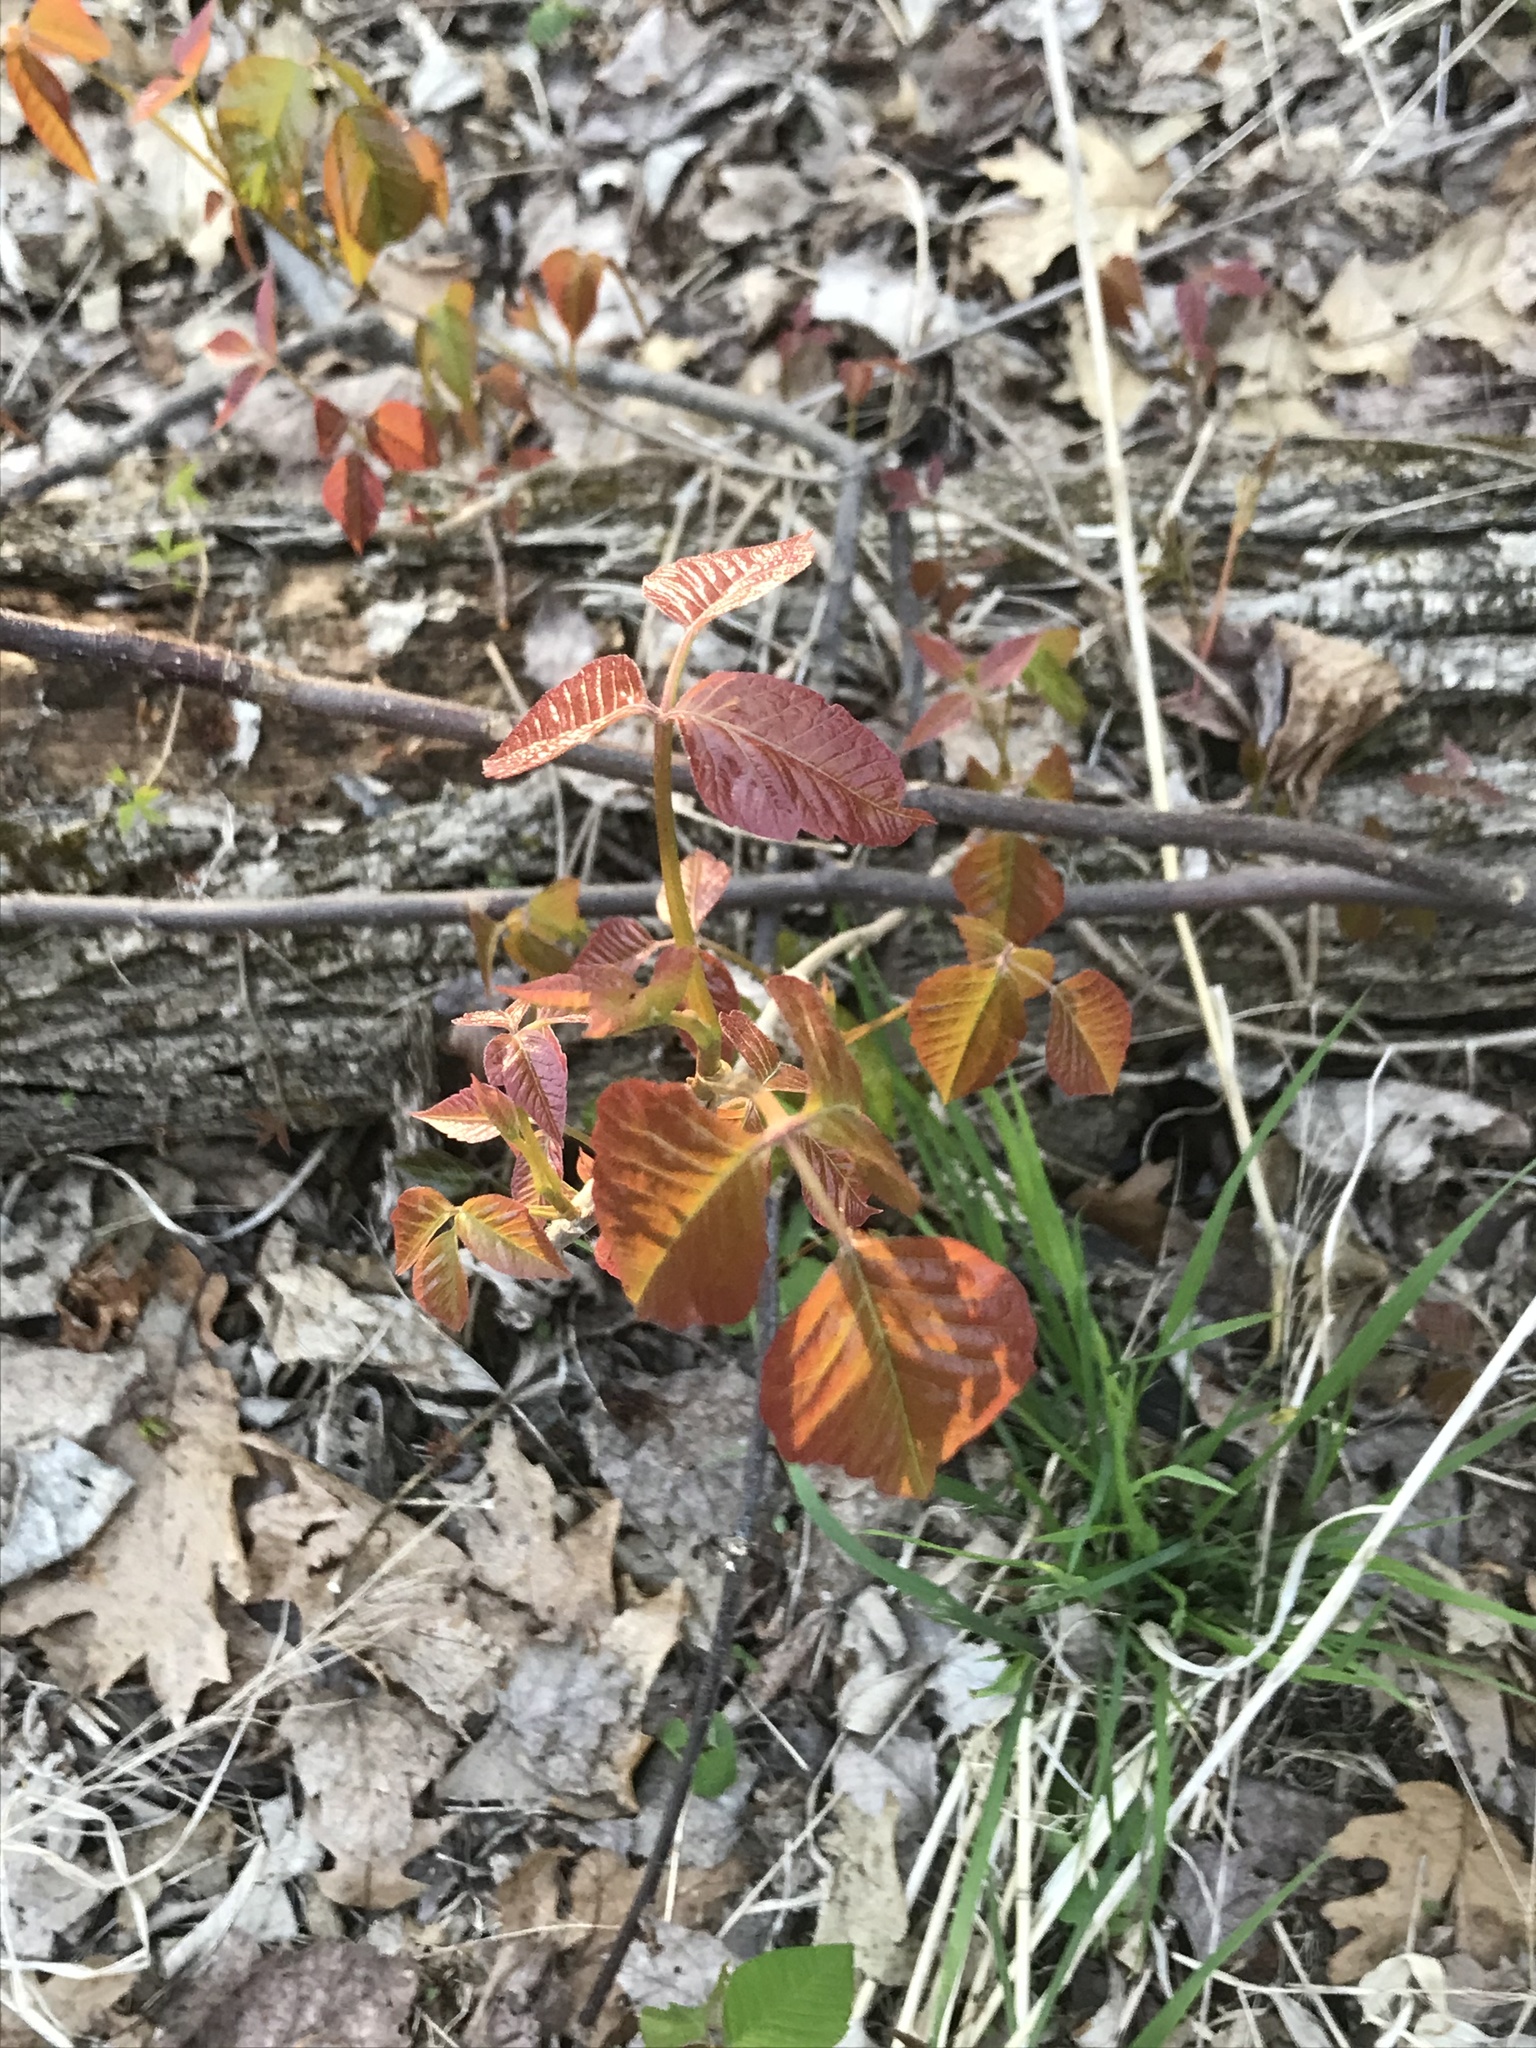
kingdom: Plantae
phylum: Tracheophyta
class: Magnoliopsida
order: Sapindales
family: Anacardiaceae
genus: Toxicodendron
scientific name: Toxicodendron radicans
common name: Poison ivy
